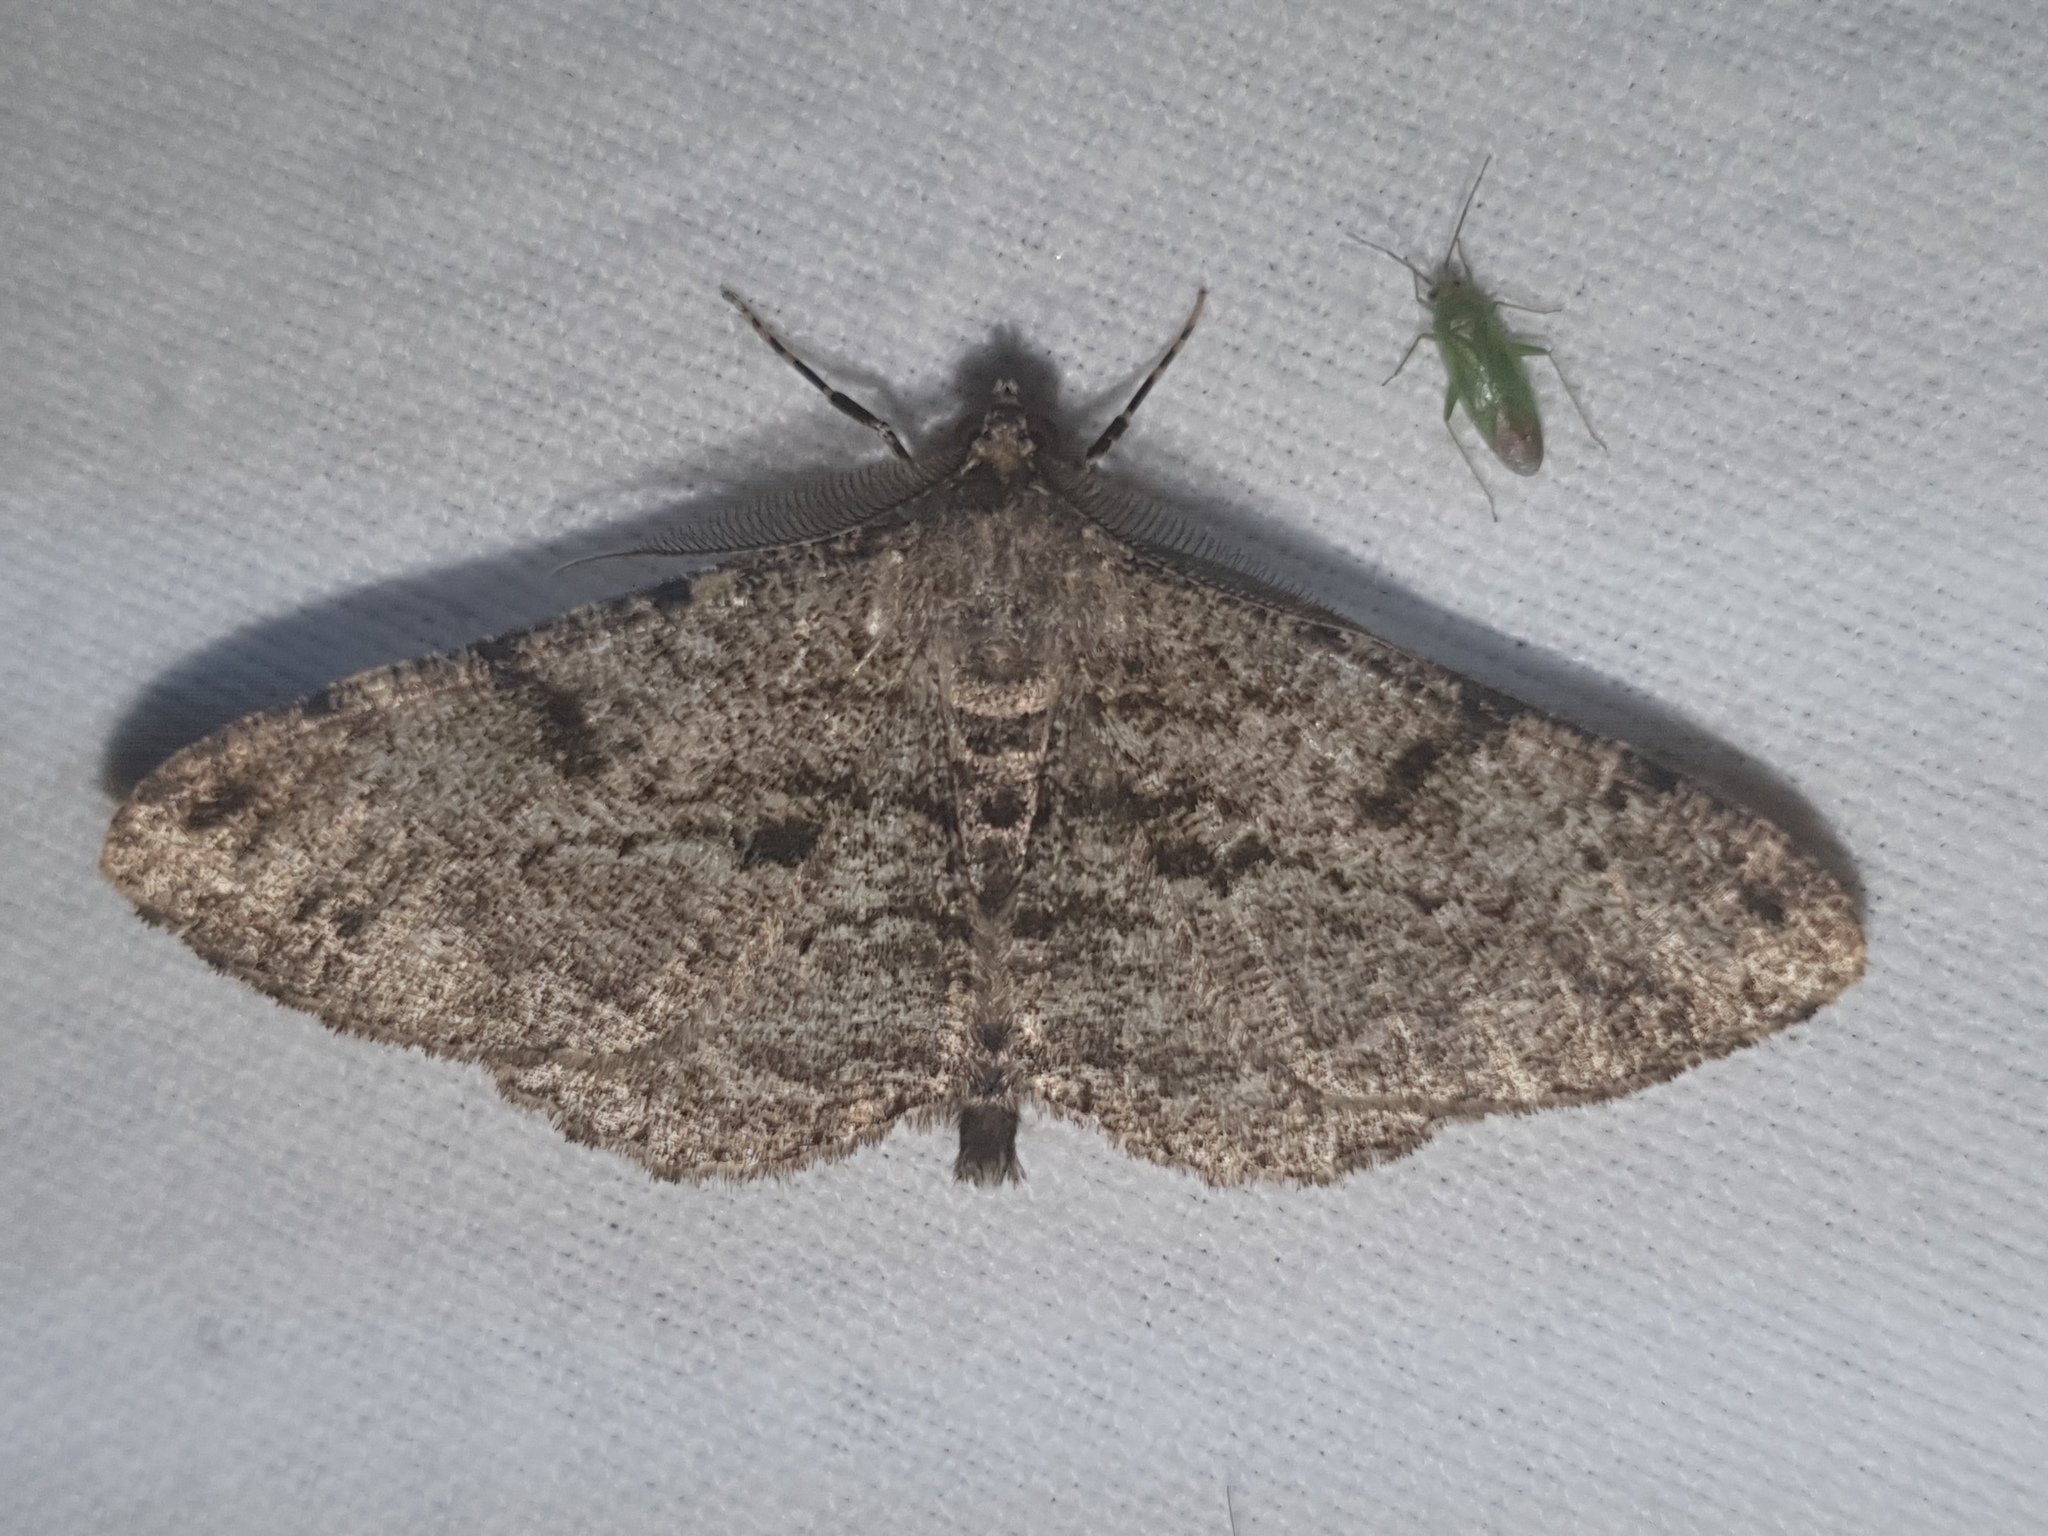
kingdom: Animalia
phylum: Arthropoda
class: Insecta
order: Lepidoptera
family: Geometridae
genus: Peribatodes
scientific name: Peribatodes rhomboidaria
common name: Willow beauty
